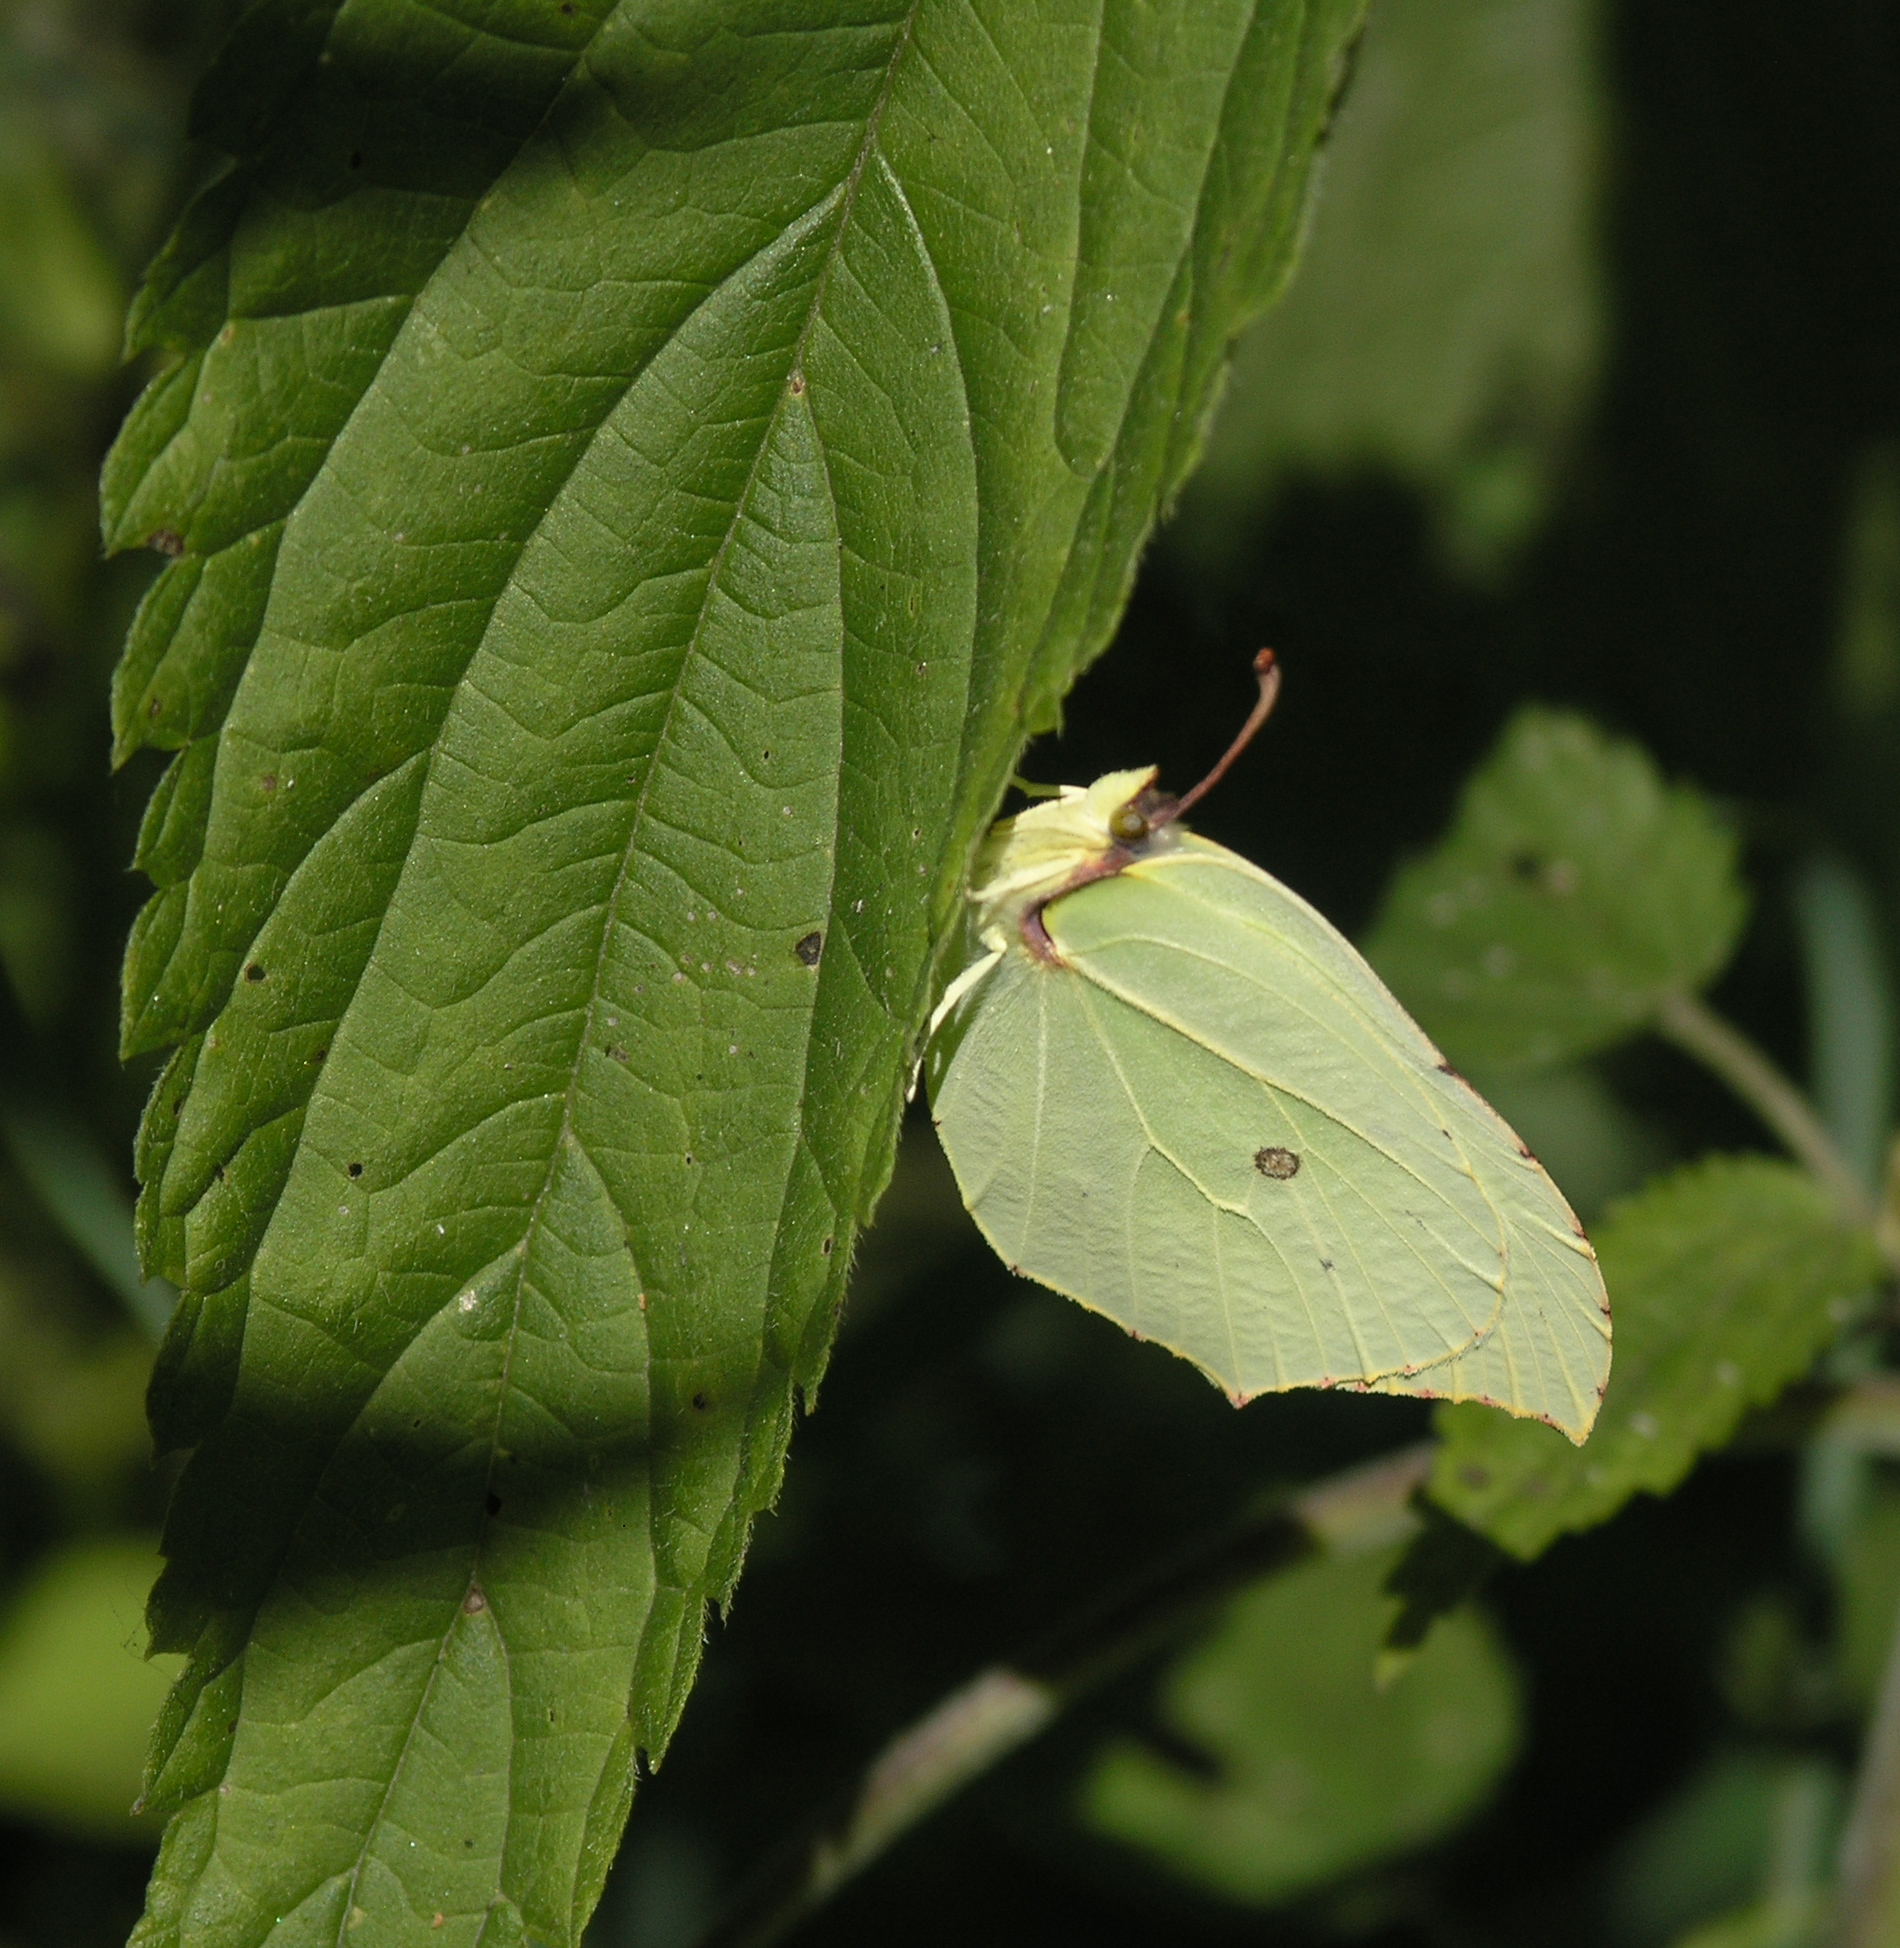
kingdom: Animalia
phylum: Arthropoda
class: Insecta
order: Lepidoptera
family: Pieridae
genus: Gonepteryx
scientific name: Gonepteryx rhamni
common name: Brimstone
